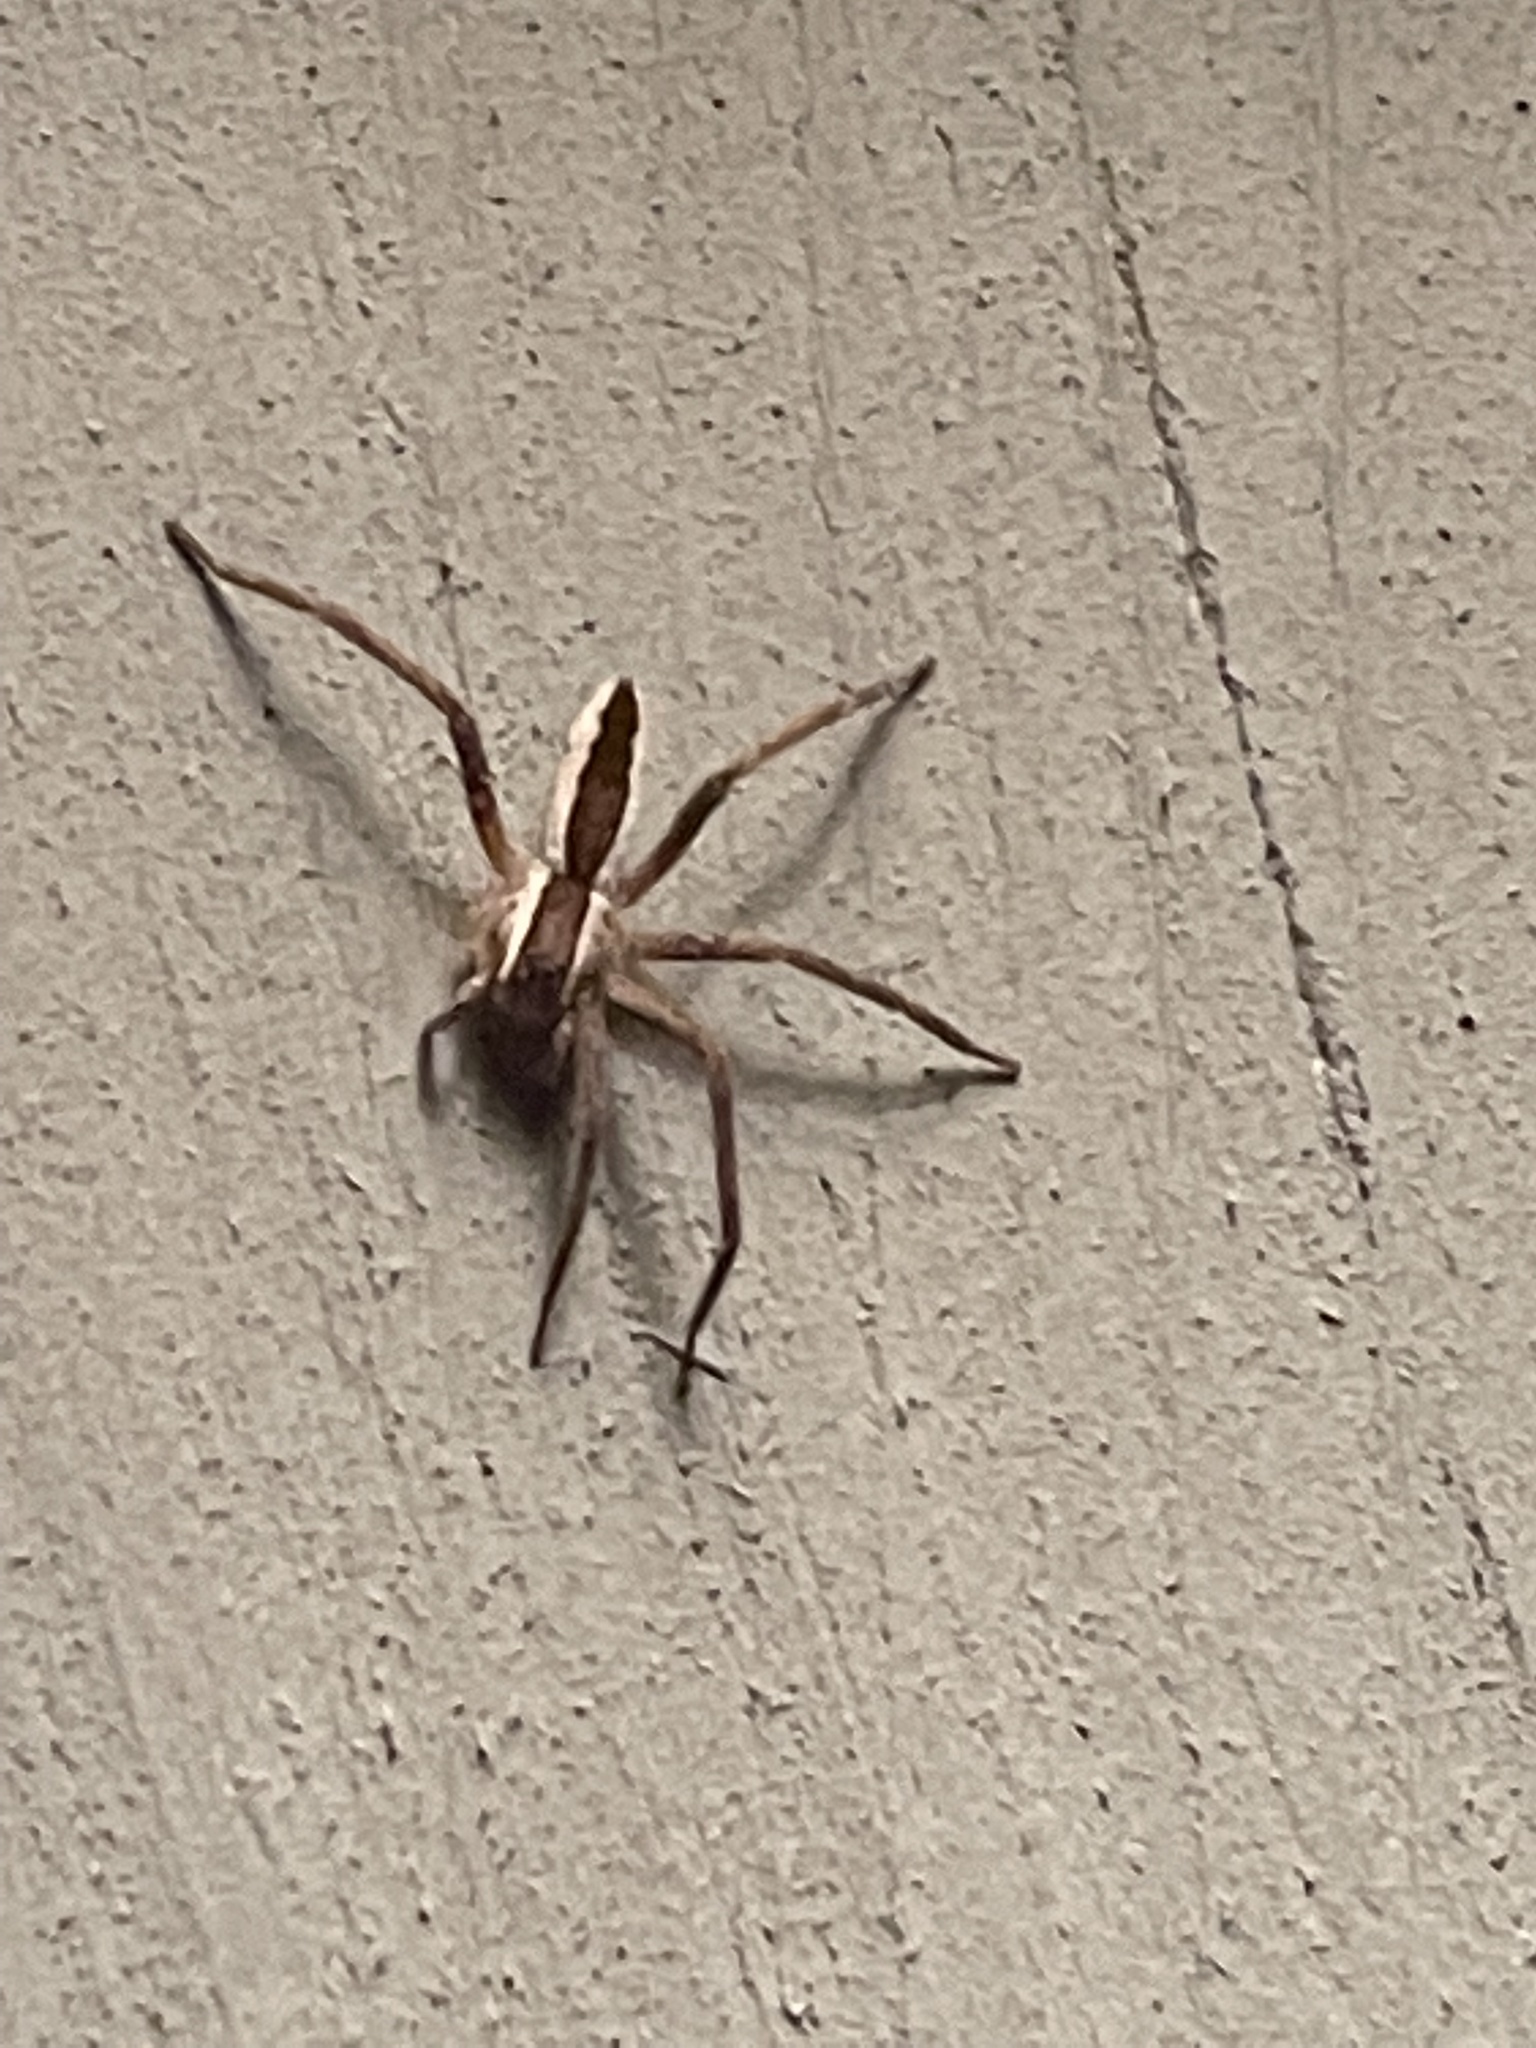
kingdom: Animalia
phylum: Arthropoda
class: Arachnida
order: Araneae
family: Pisauridae
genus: Pisaurina
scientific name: Pisaurina mira
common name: American nursery web spider
